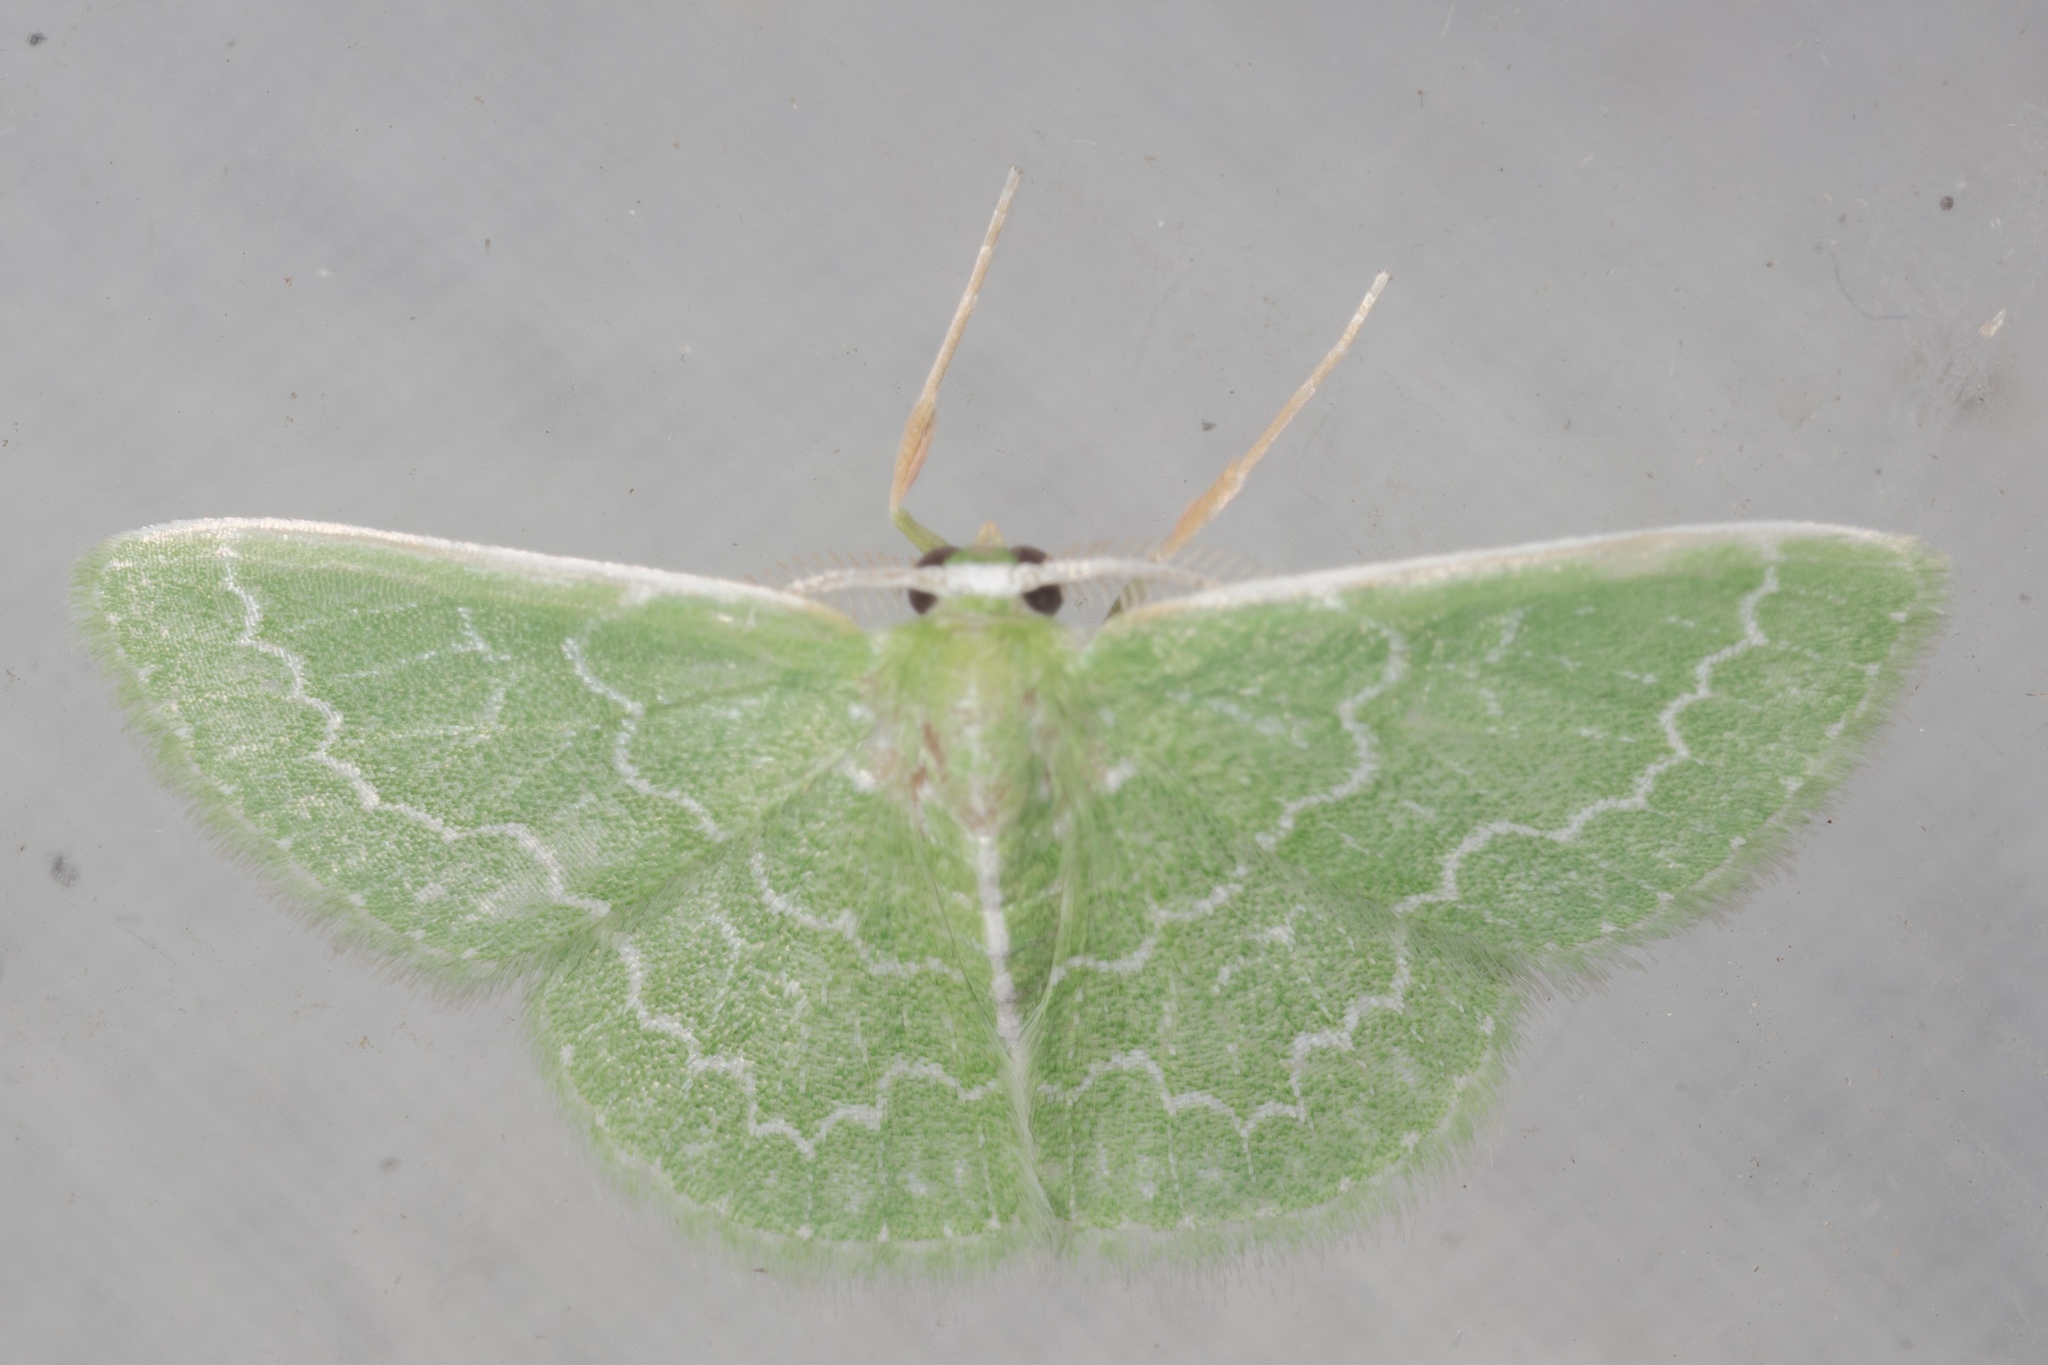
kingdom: Animalia
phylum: Arthropoda
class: Insecta
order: Lepidoptera
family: Geometridae
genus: Synchlora
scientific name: Synchlora frondaria
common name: Southern emerald
